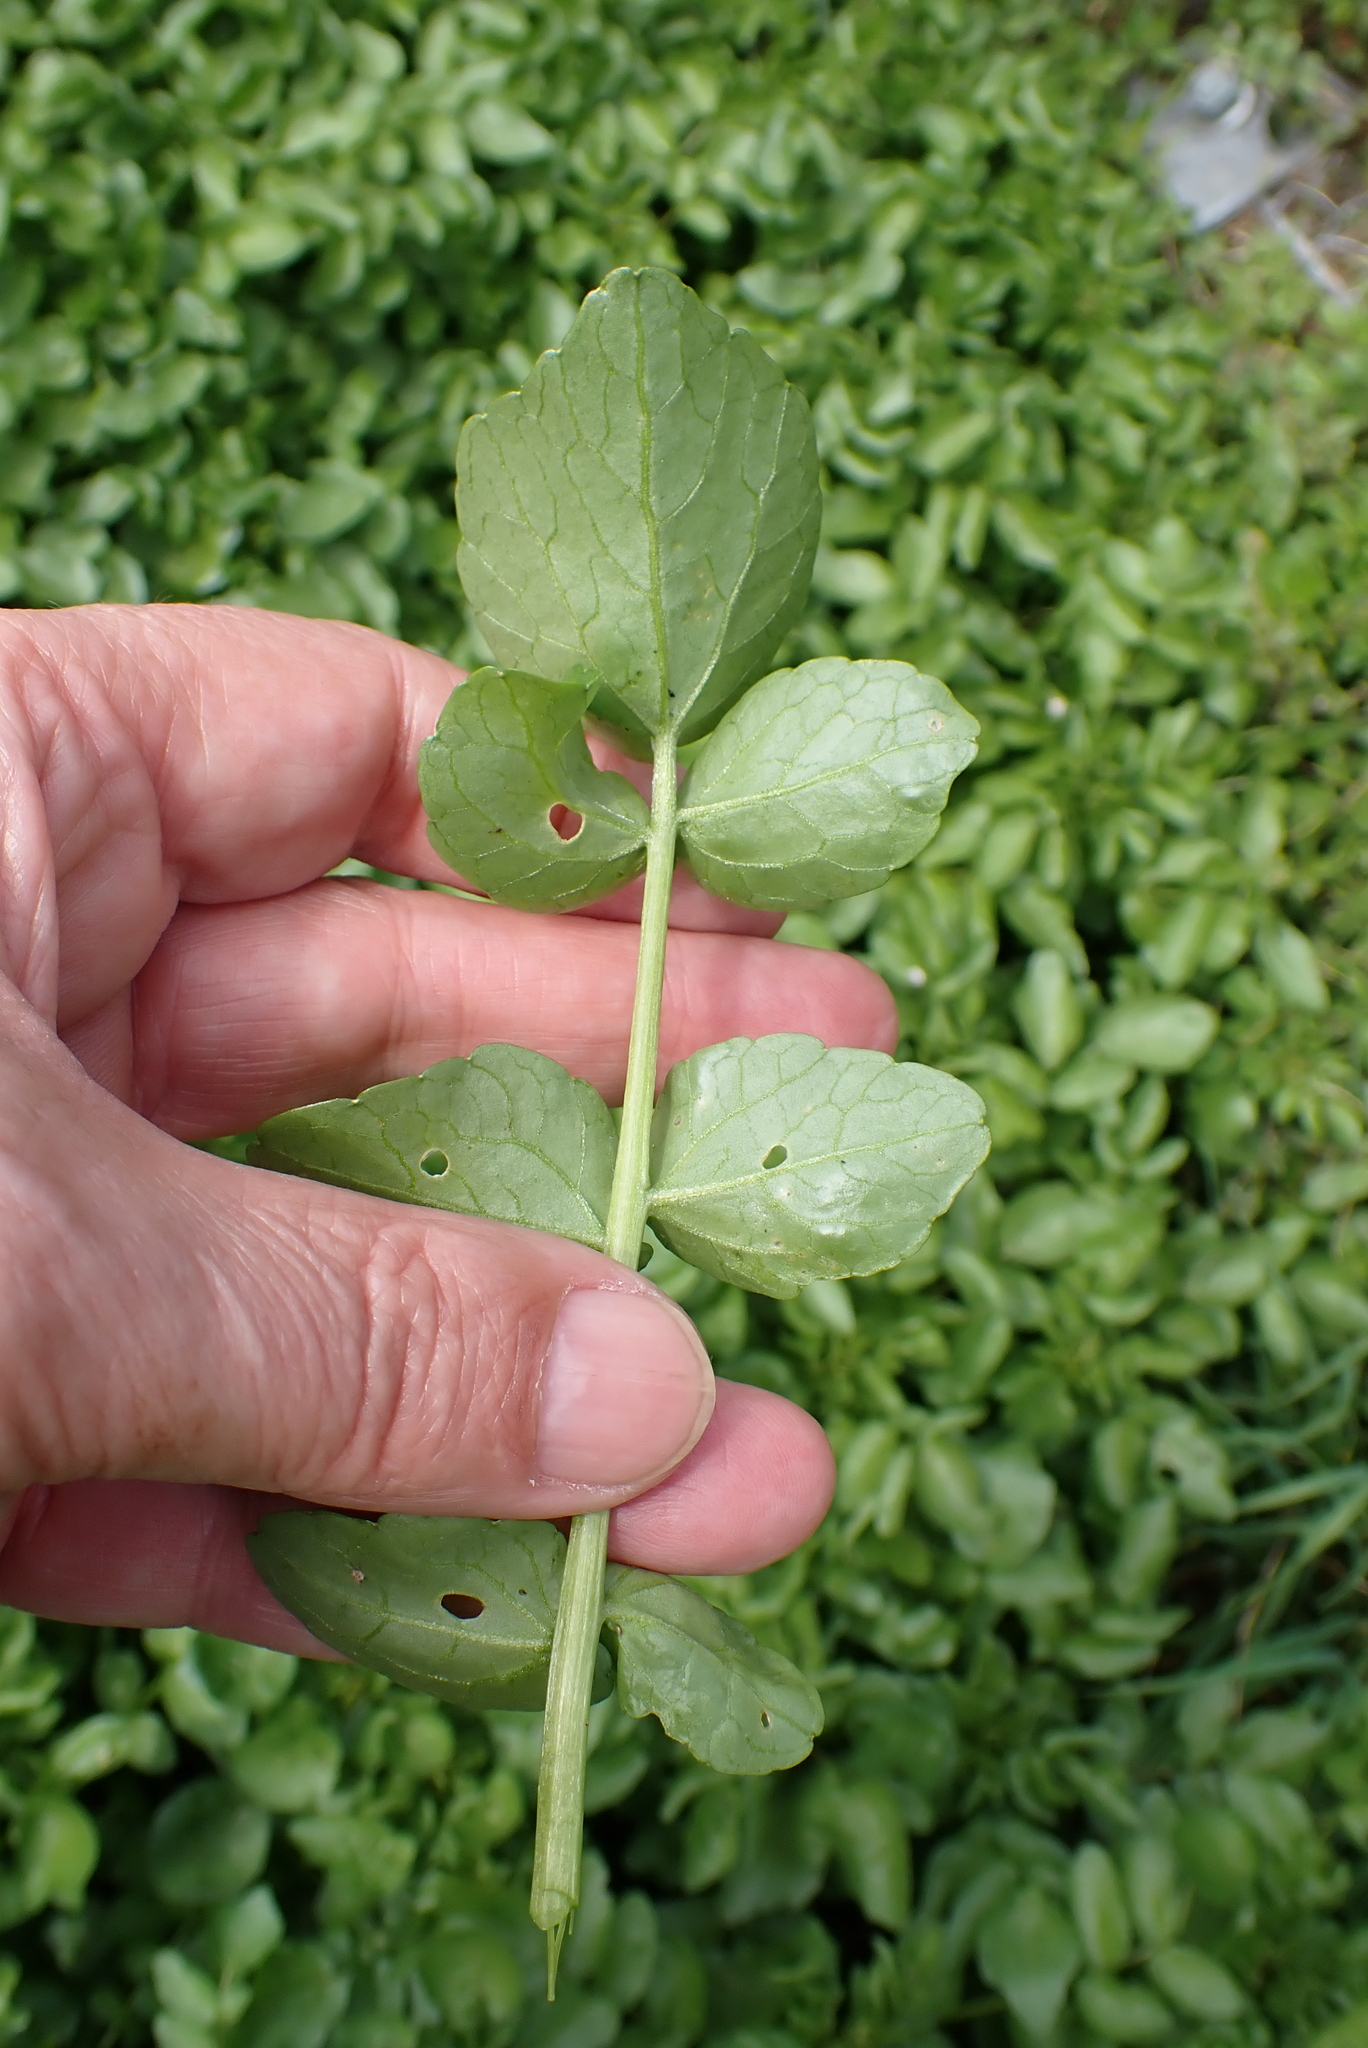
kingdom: Plantae
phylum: Tracheophyta
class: Magnoliopsida
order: Brassicales
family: Brassicaceae
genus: Nasturtium
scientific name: Nasturtium officinale
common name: Watercress
